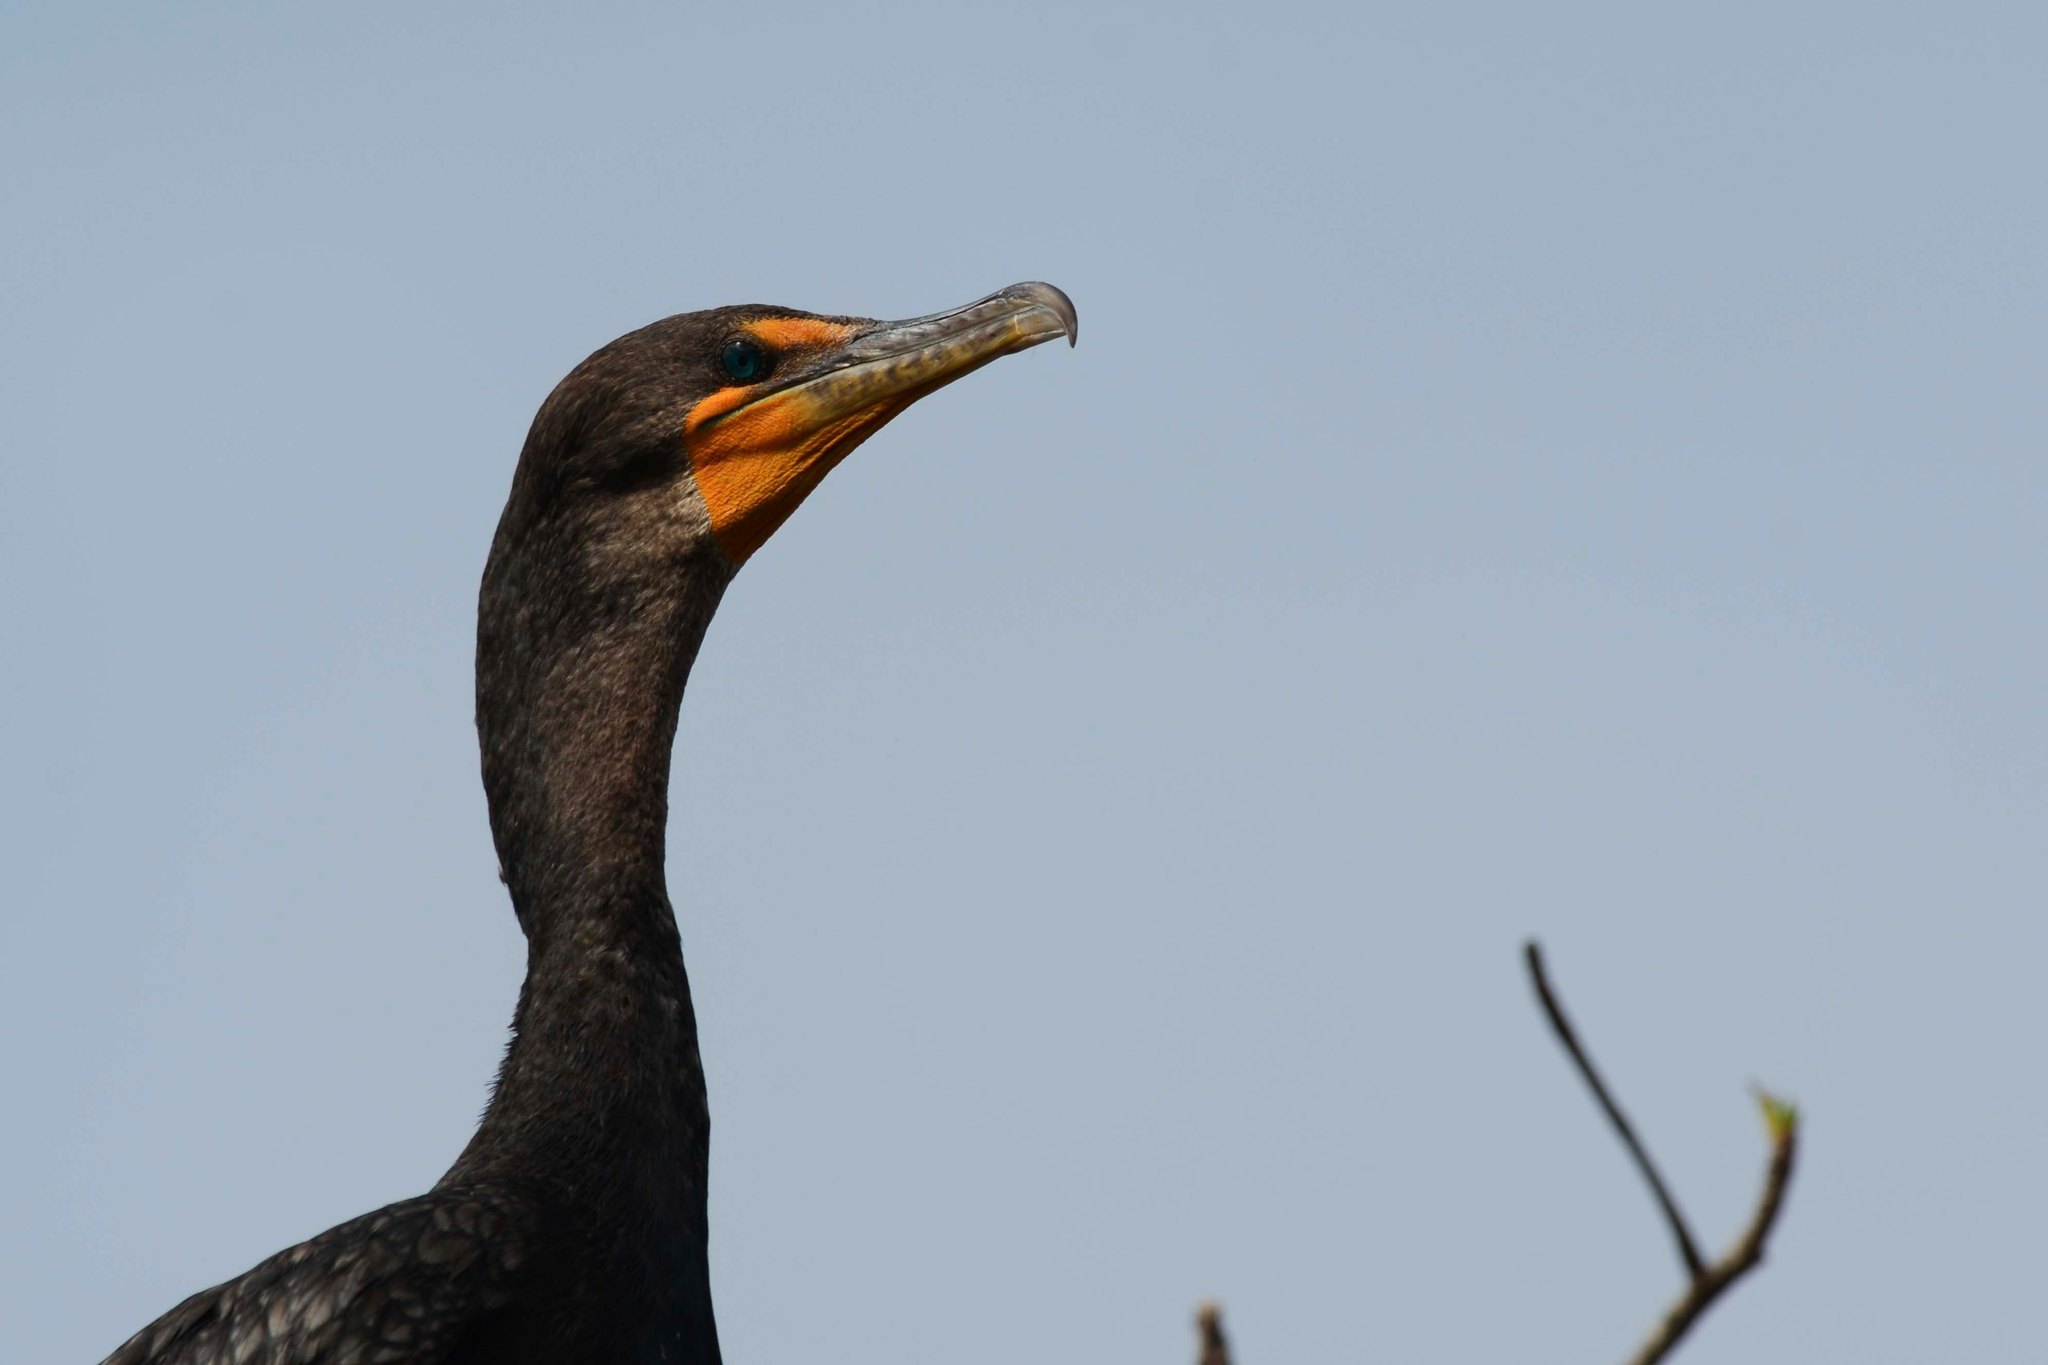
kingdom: Animalia
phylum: Chordata
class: Aves
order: Suliformes
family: Phalacrocoracidae
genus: Phalacrocorax
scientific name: Phalacrocorax auritus
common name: Double-crested cormorant
